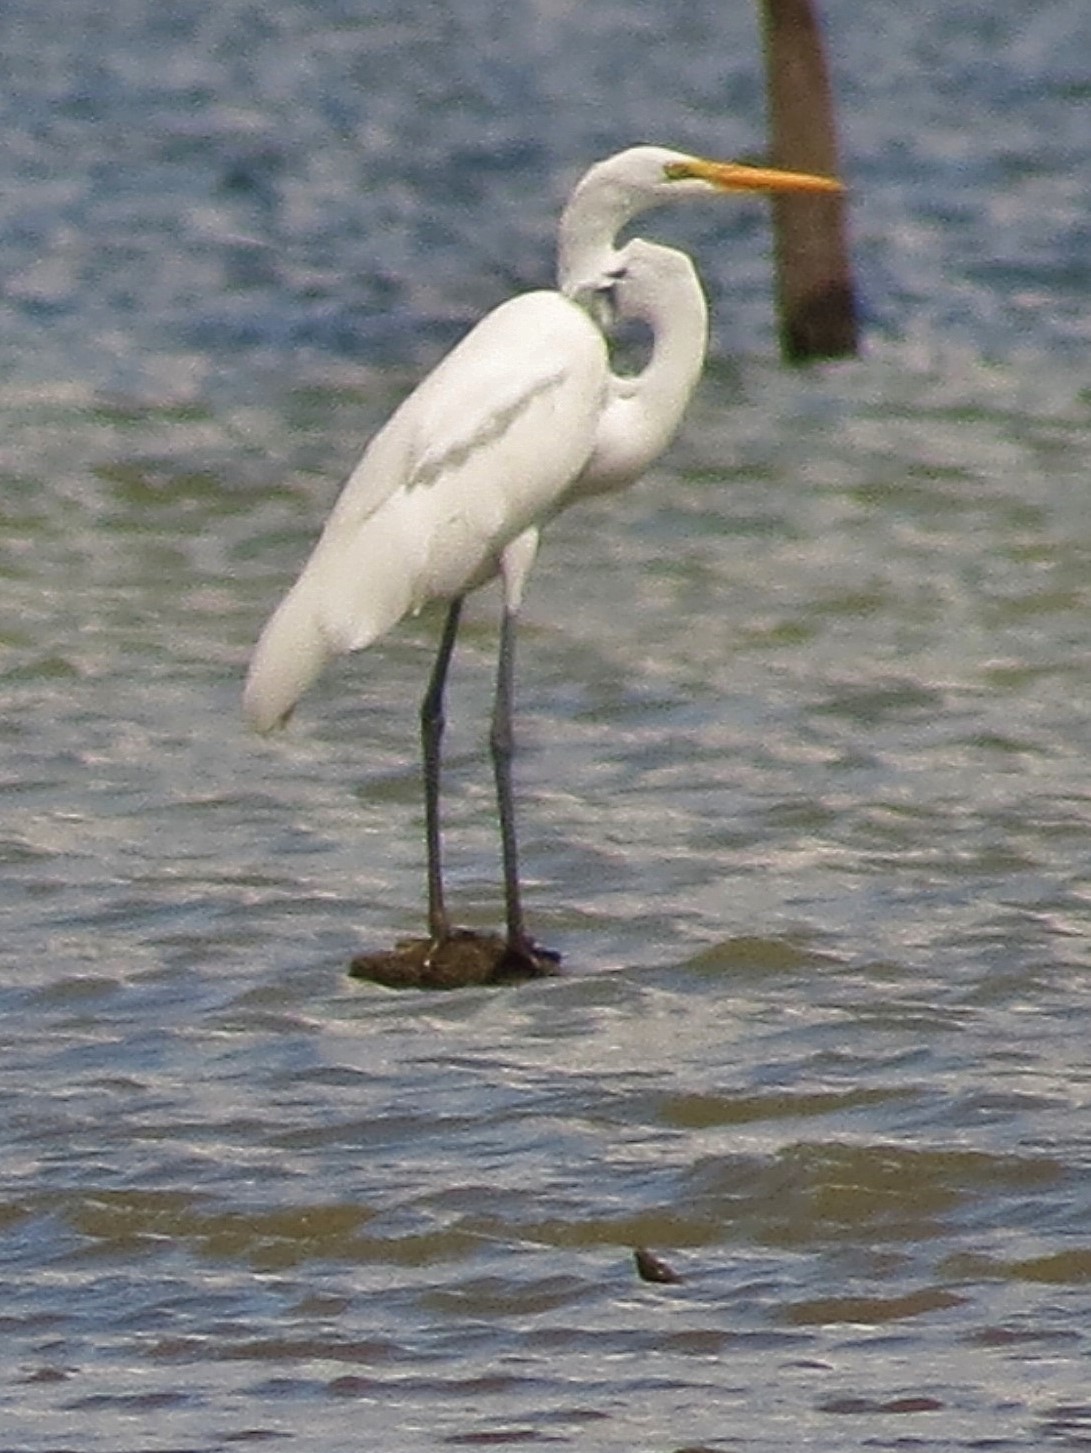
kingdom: Animalia
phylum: Chordata
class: Aves
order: Pelecaniformes
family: Ardeidae
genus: Ardea
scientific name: Ardea alba
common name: Great egret
